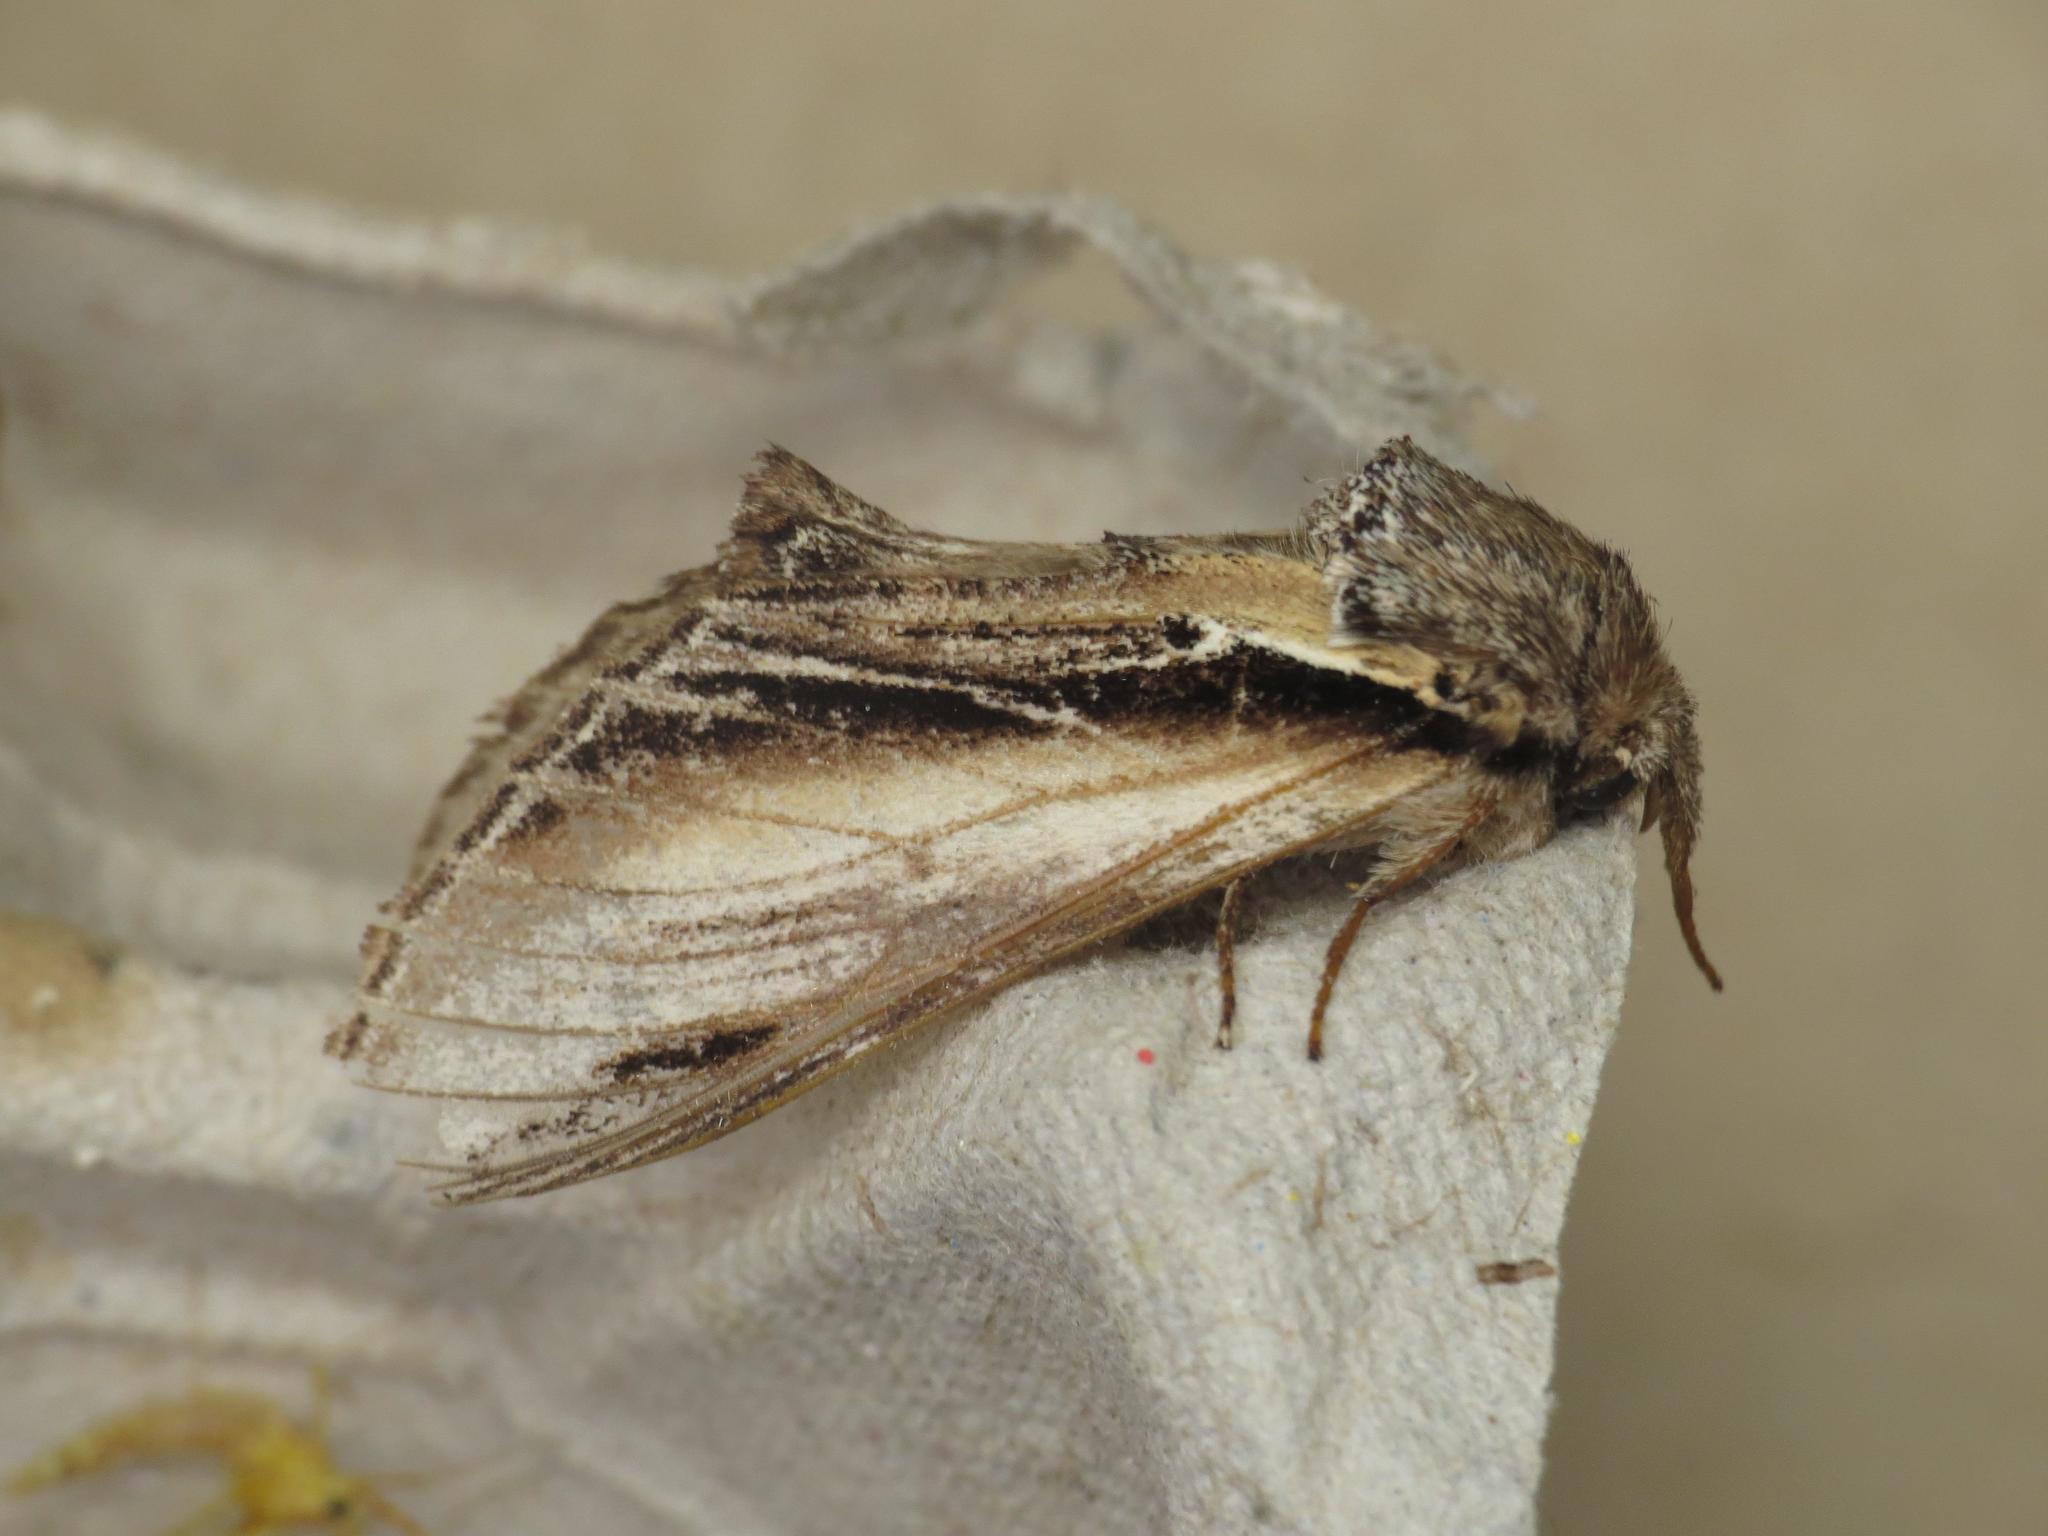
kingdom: Animalia
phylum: Arthropoda
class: Insecta
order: Lepidoptera
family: Notodontidae
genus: Pheosia
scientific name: Pheosia tremula
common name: Swallow prominent
